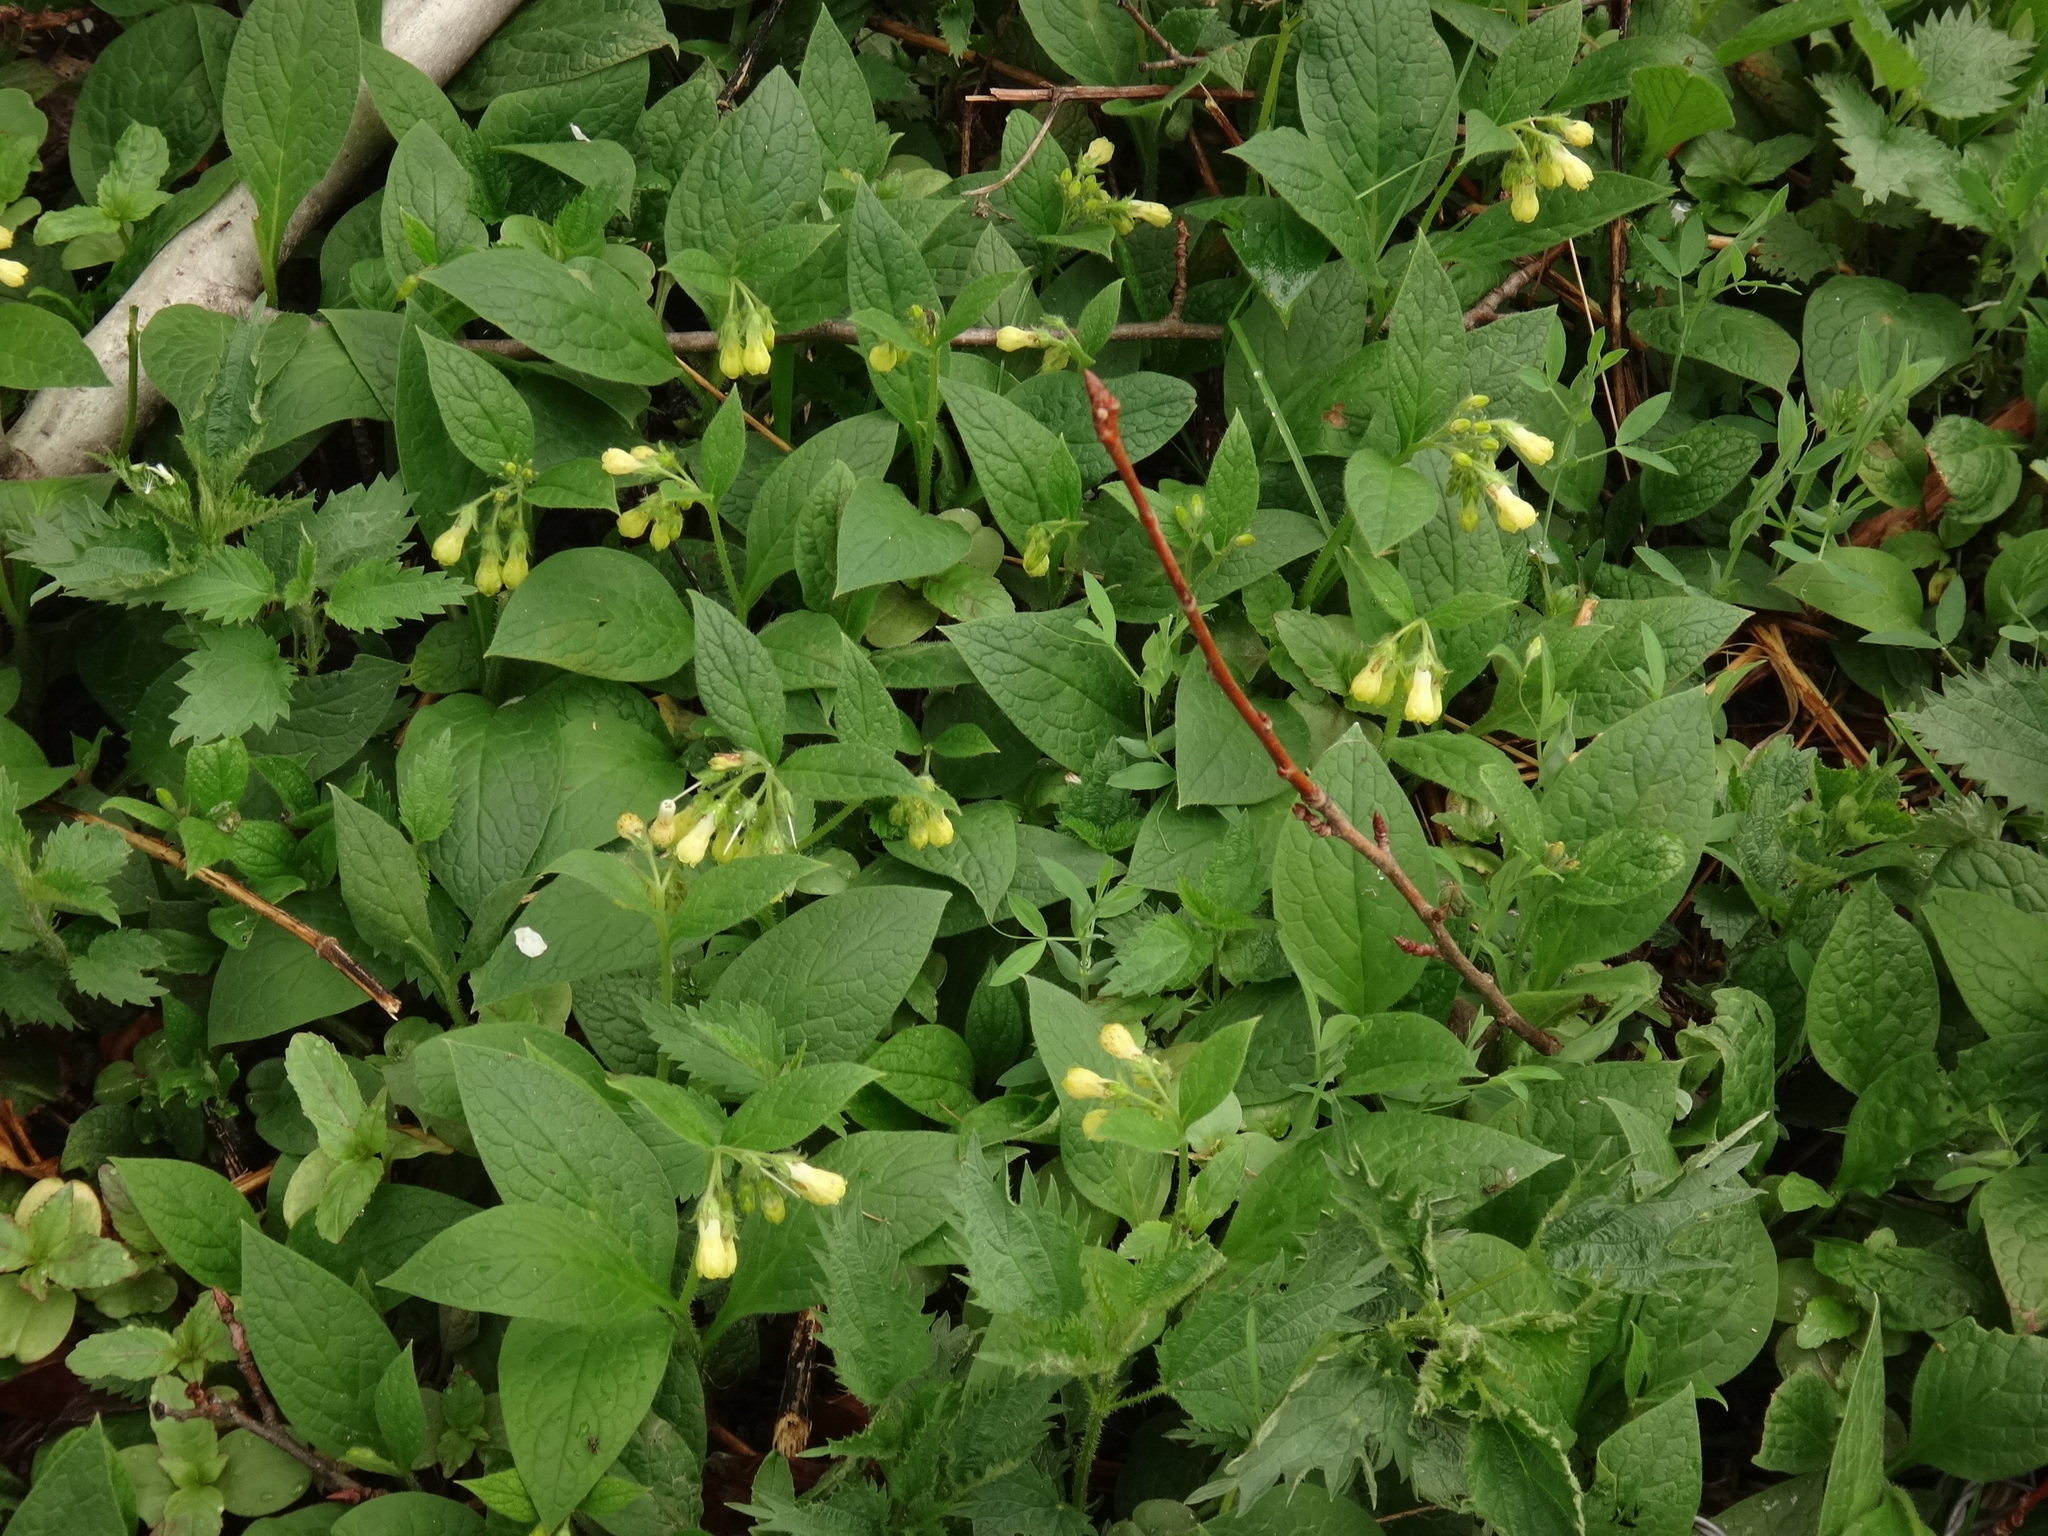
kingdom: Plantae
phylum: Tracheophyta
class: Magnoliopsida
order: Boraginales
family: Boraginaceae
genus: Symphytum
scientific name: Symphytum tuberosum
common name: Tuberous comfrey
